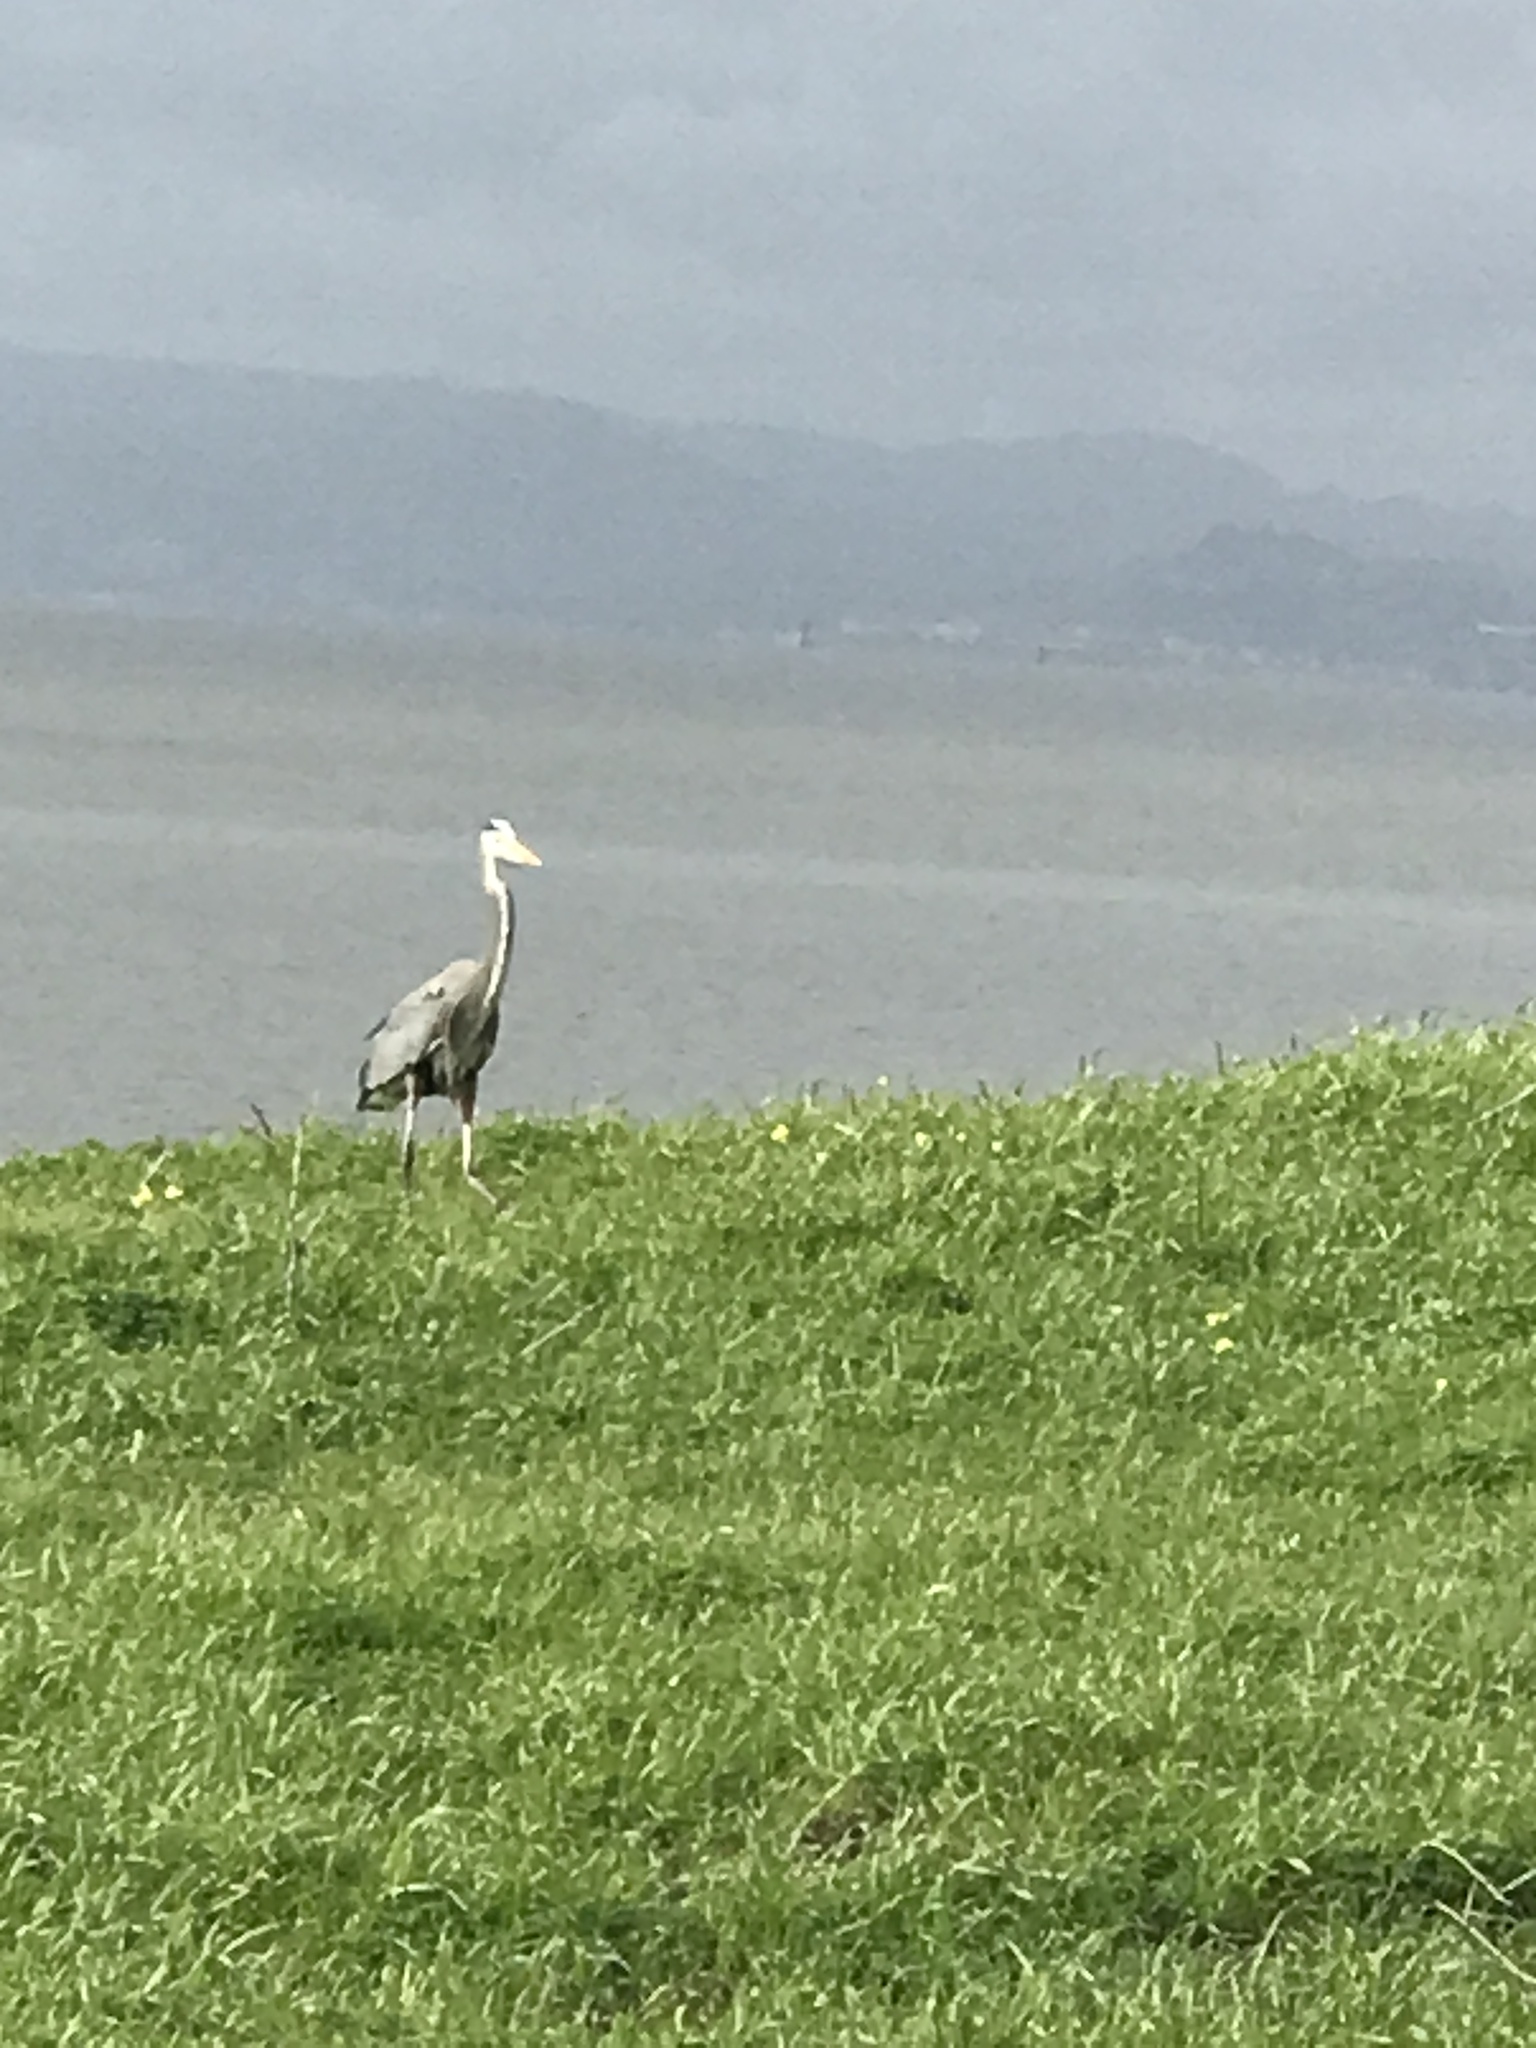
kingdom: Animalia
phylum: Chordata
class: Aves
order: Pelecaniformes
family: Ardeidae
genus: Ardea
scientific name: Ardea herodias
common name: Great blue heron
